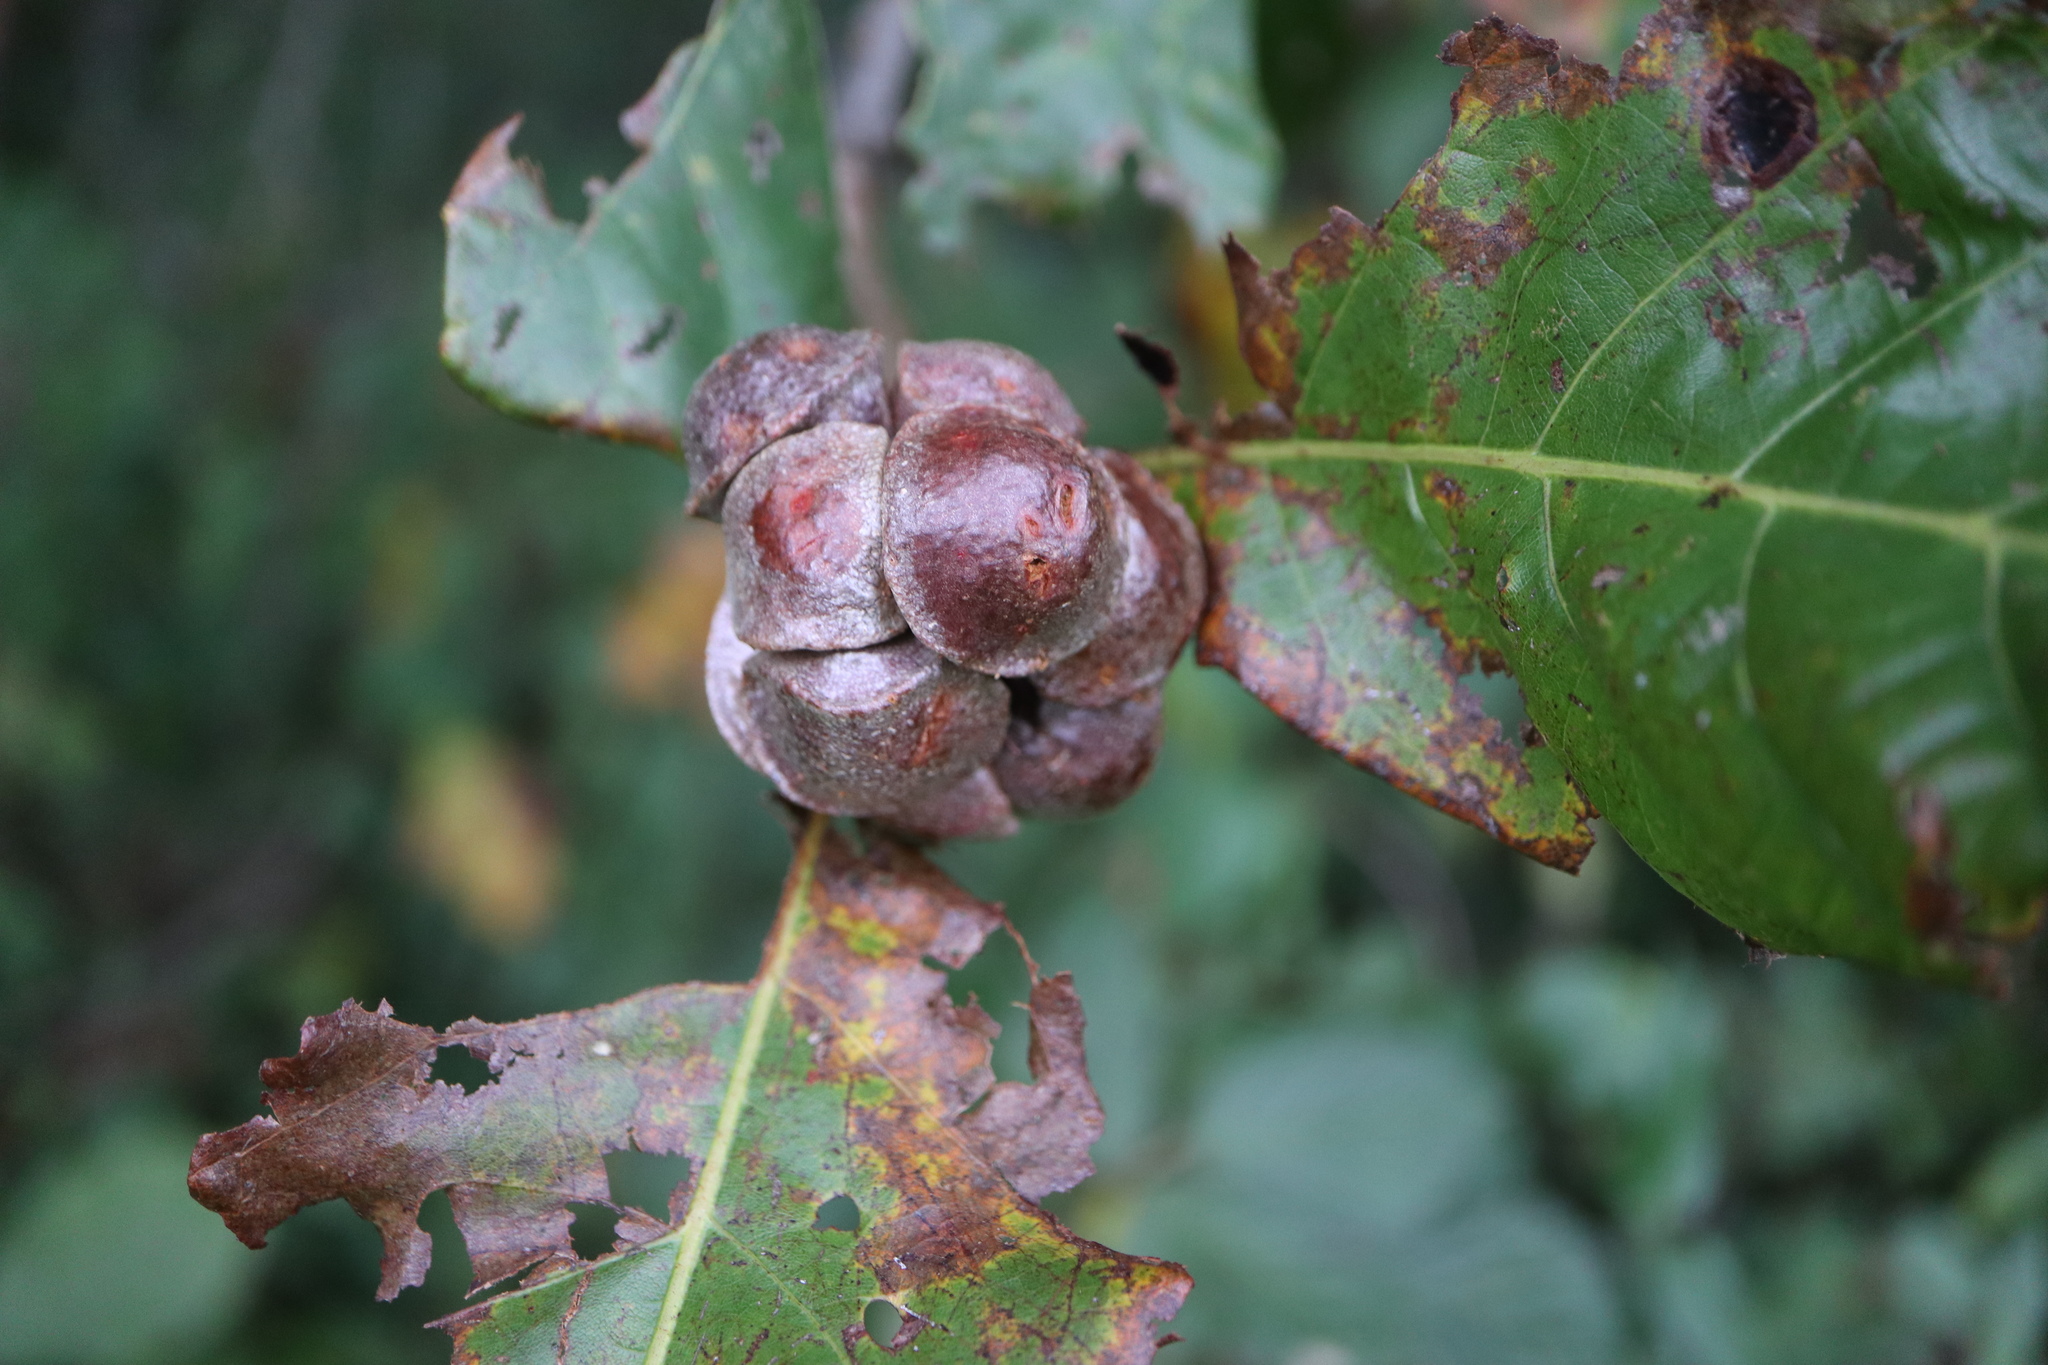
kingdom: Animalia
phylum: Arthropoda
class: Insecta
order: Hymenoptera
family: Cynipidae
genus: Andricus
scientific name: Andricus
